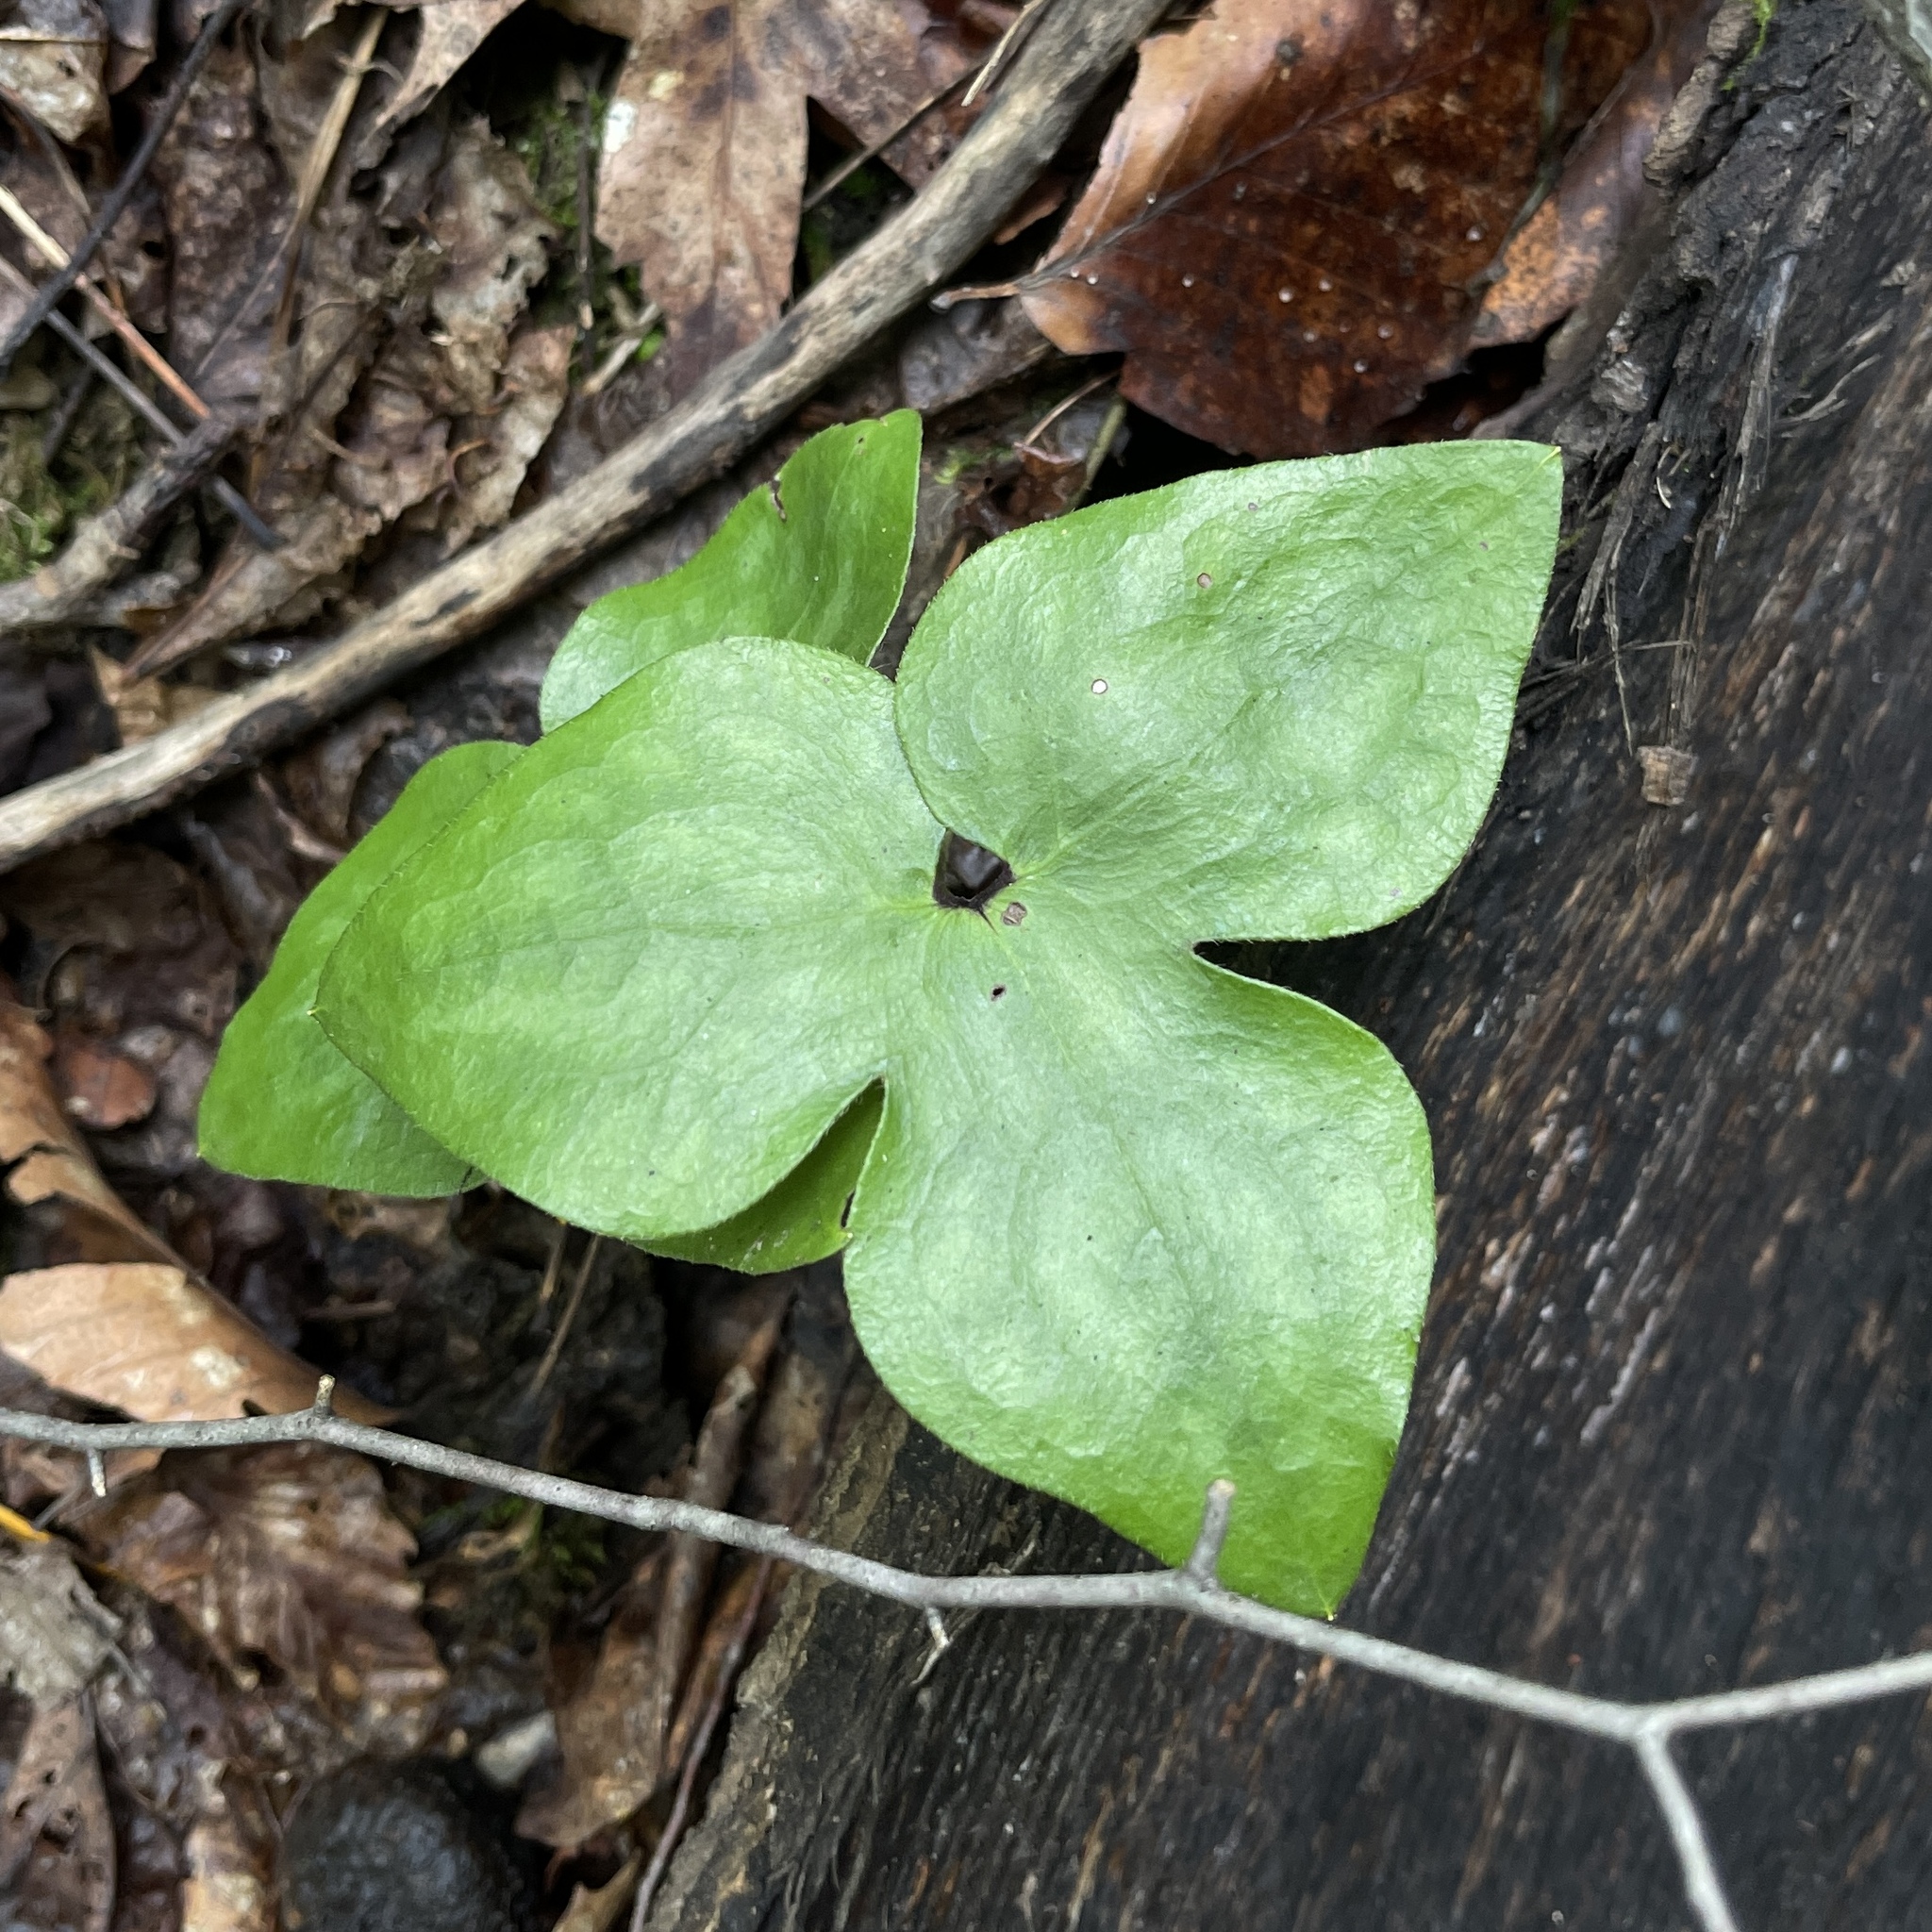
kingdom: Plantae
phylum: Tracheophyta
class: Magnoliopsida
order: Ranunculales
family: Ranunculaceae
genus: Hepatica
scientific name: Hepatica acutiloba
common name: Sharp-lobed hepatica
